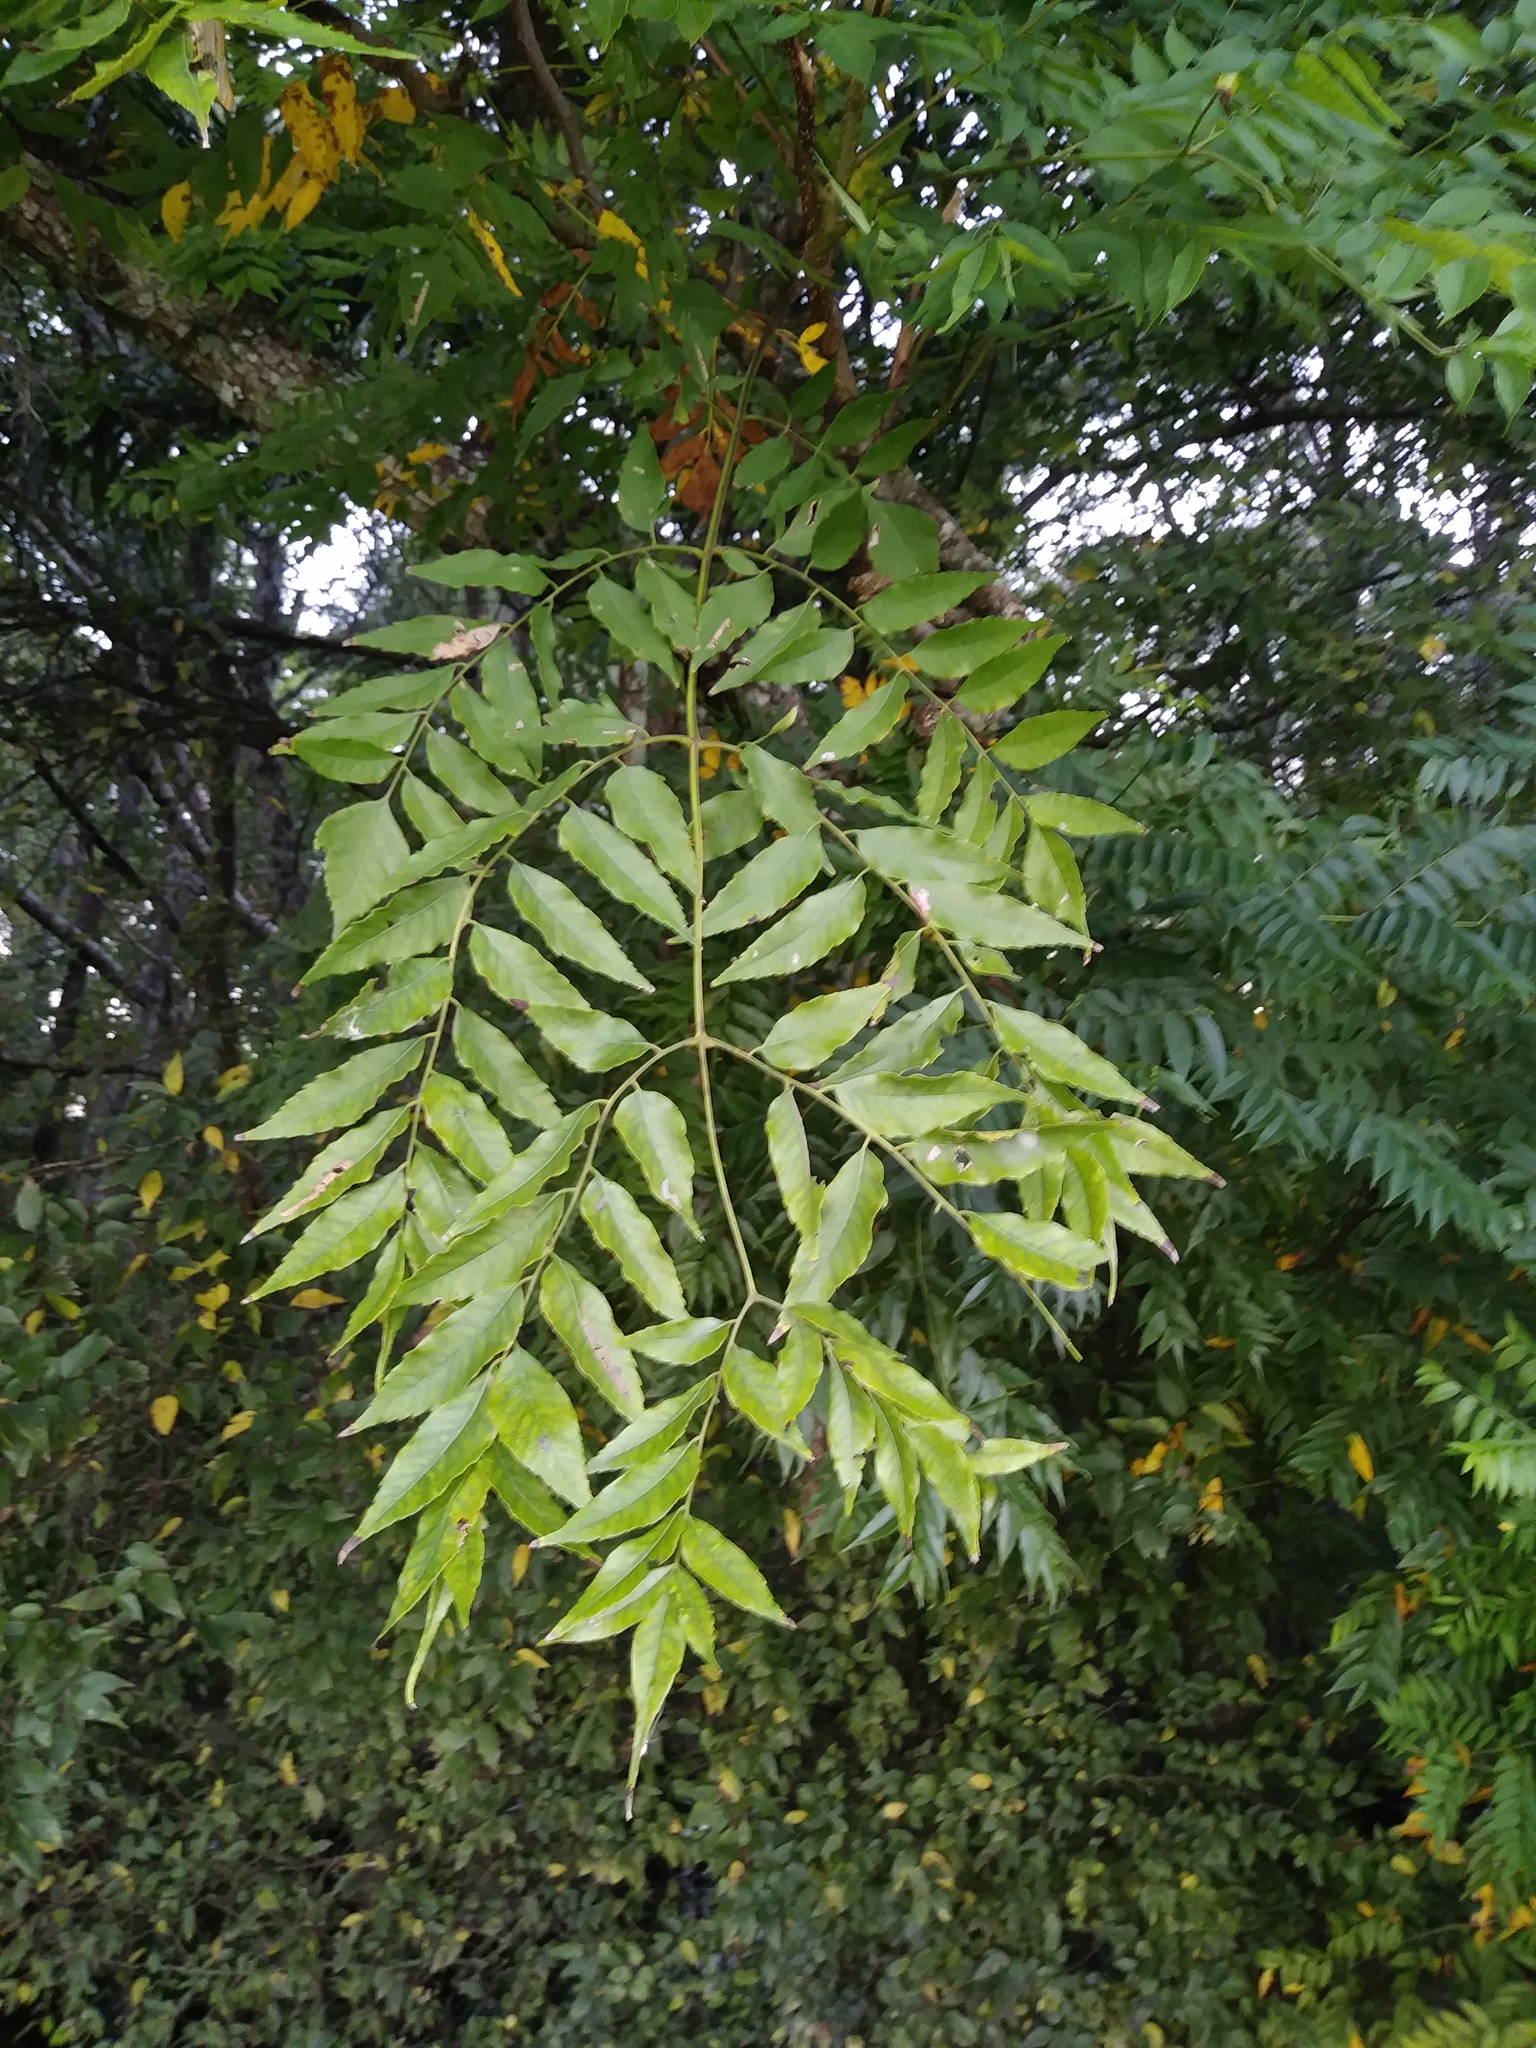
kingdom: Plantae
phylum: Tracheophyta
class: Magnoliopsida
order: Sapindales
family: Sapindaceae
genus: Koelreuteria
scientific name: Koelreuteria elegans
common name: Chinese flame tree
